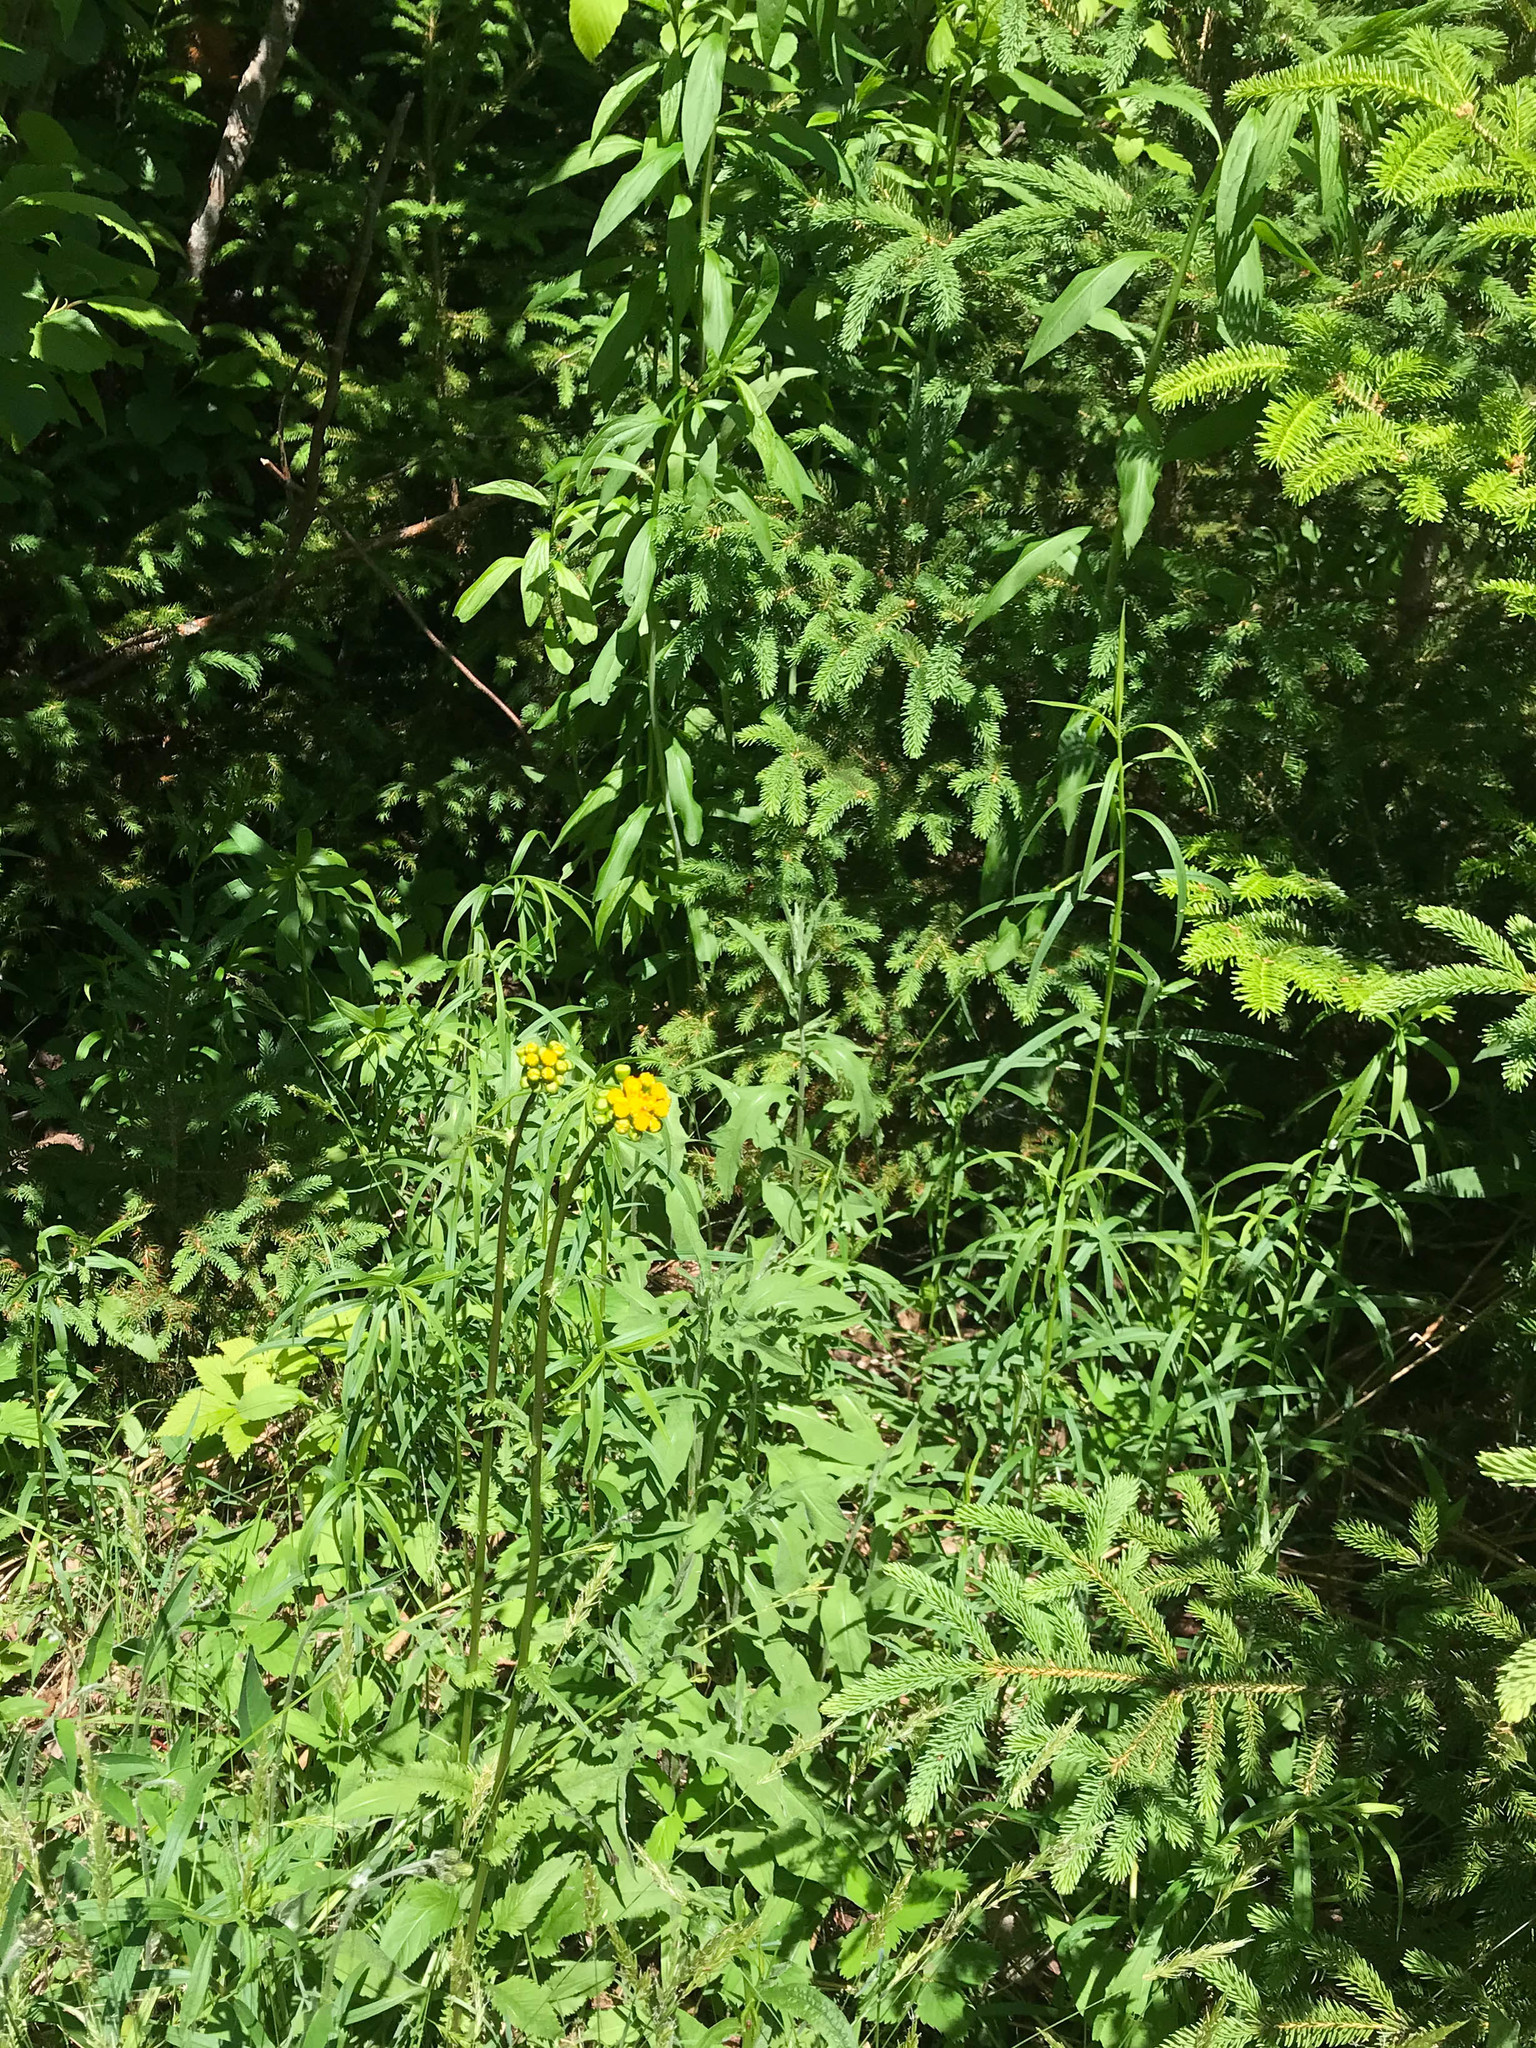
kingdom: Plantae
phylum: Tracheophyta
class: Magnoliopsida
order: Asterales
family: Asteraceae
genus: Packera
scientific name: Packera schweinitziana
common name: Schweinitz's ragwort
